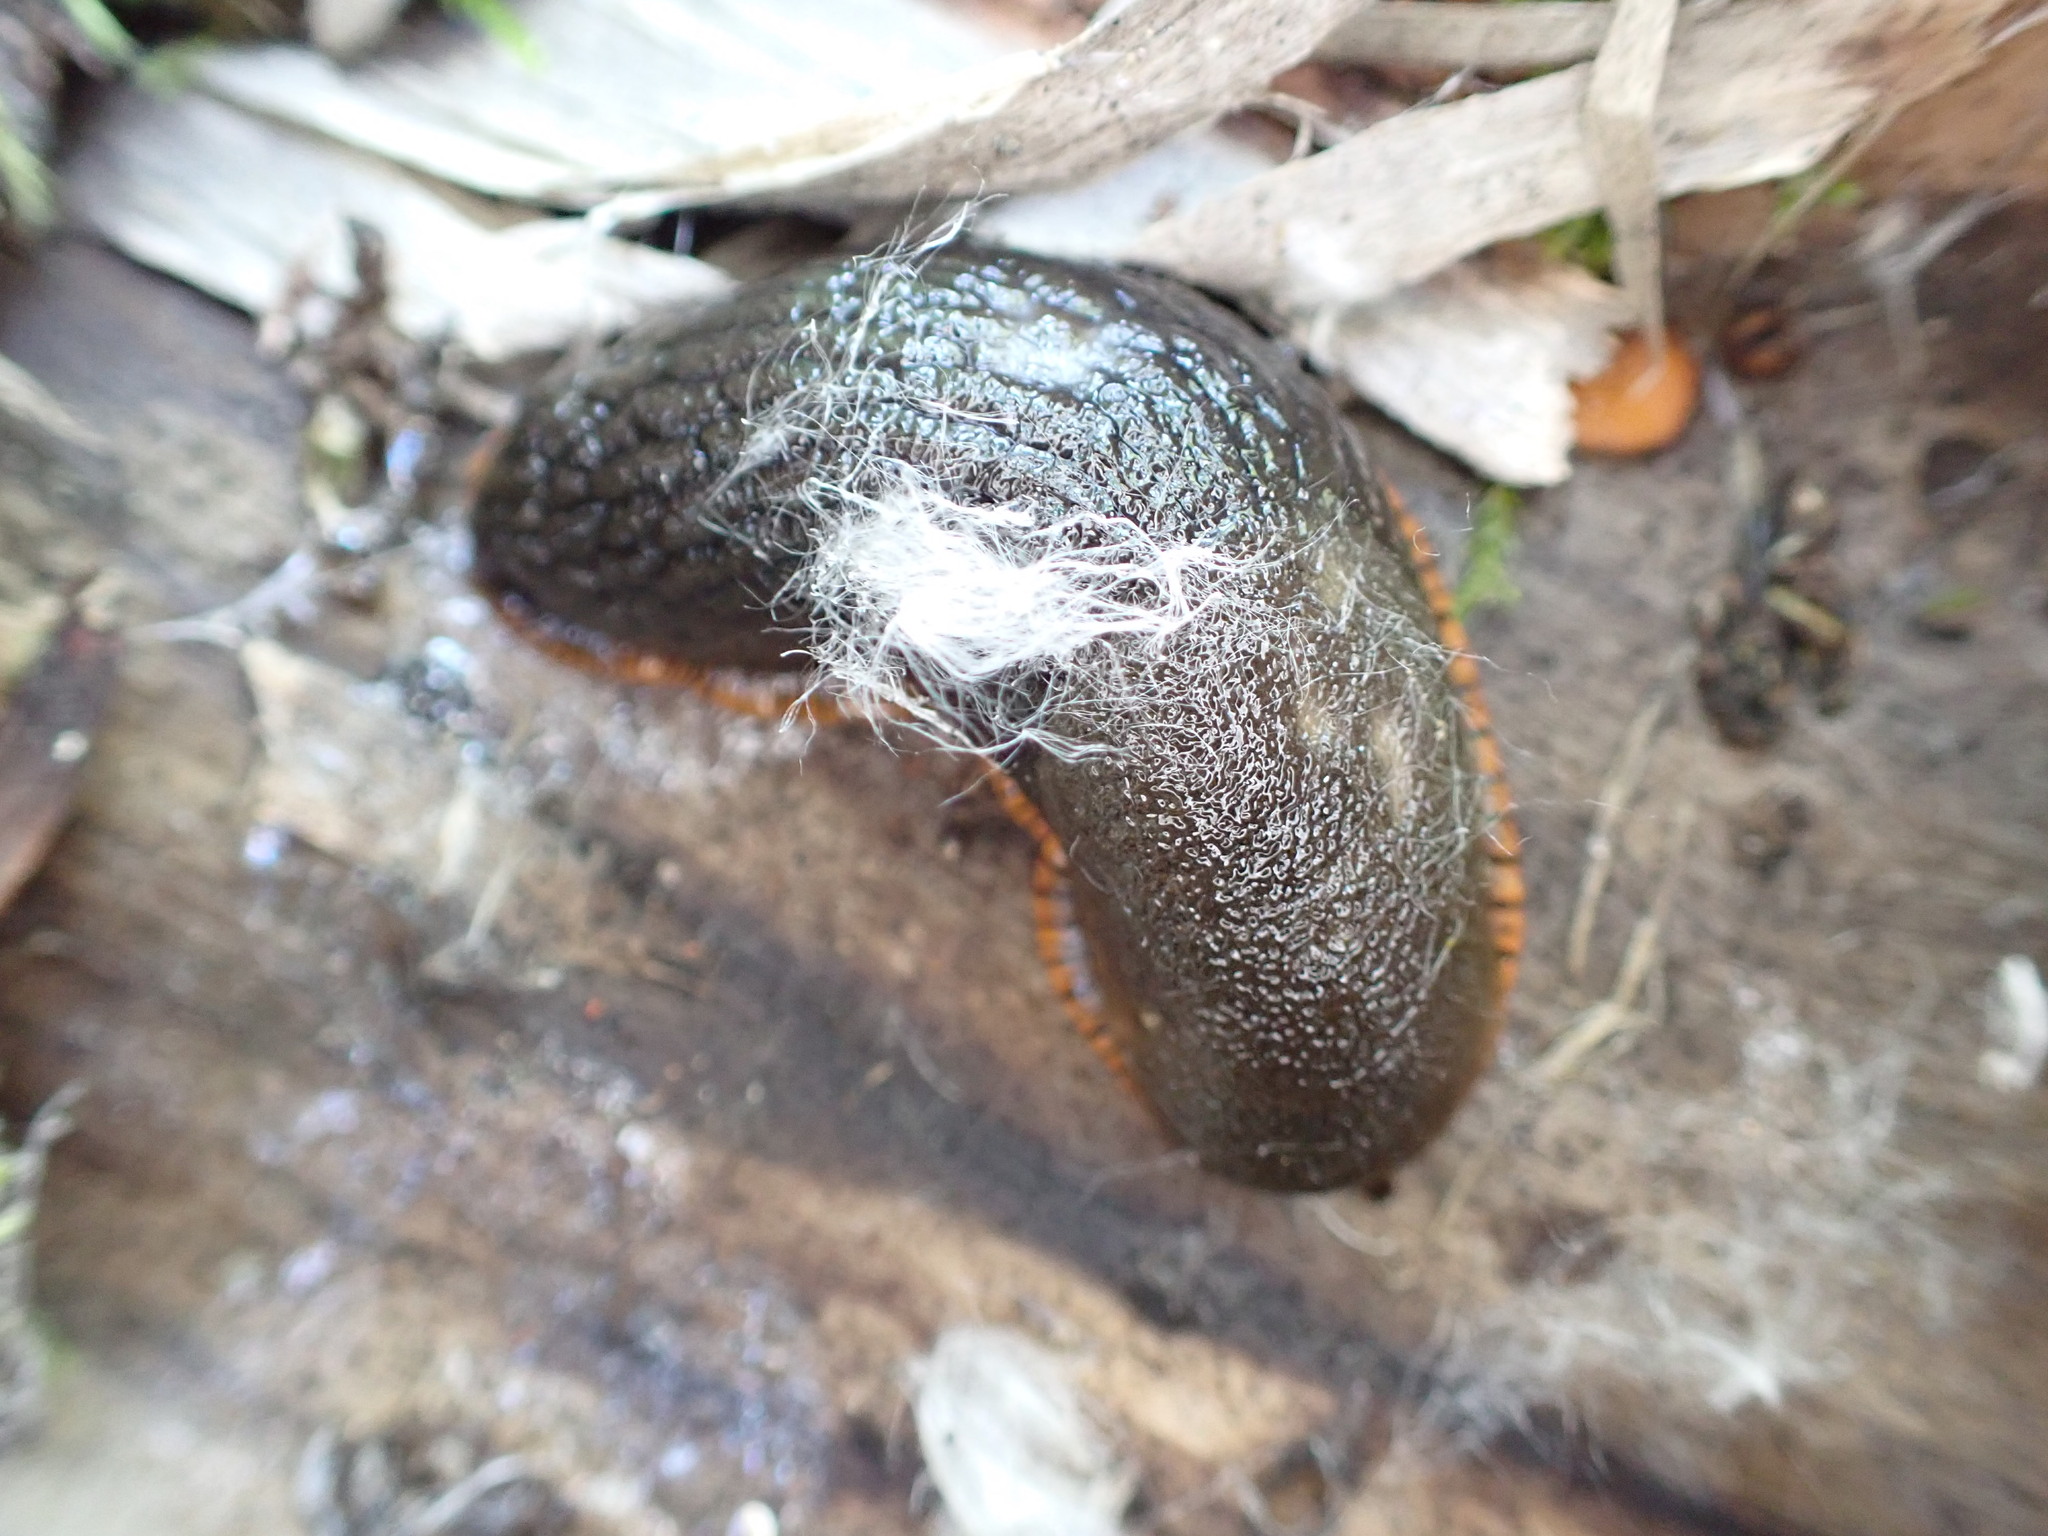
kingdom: Animalia
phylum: Mollusca
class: Gastropoda
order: Stylommatophora
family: Arionidae
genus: Arion
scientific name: Arion
